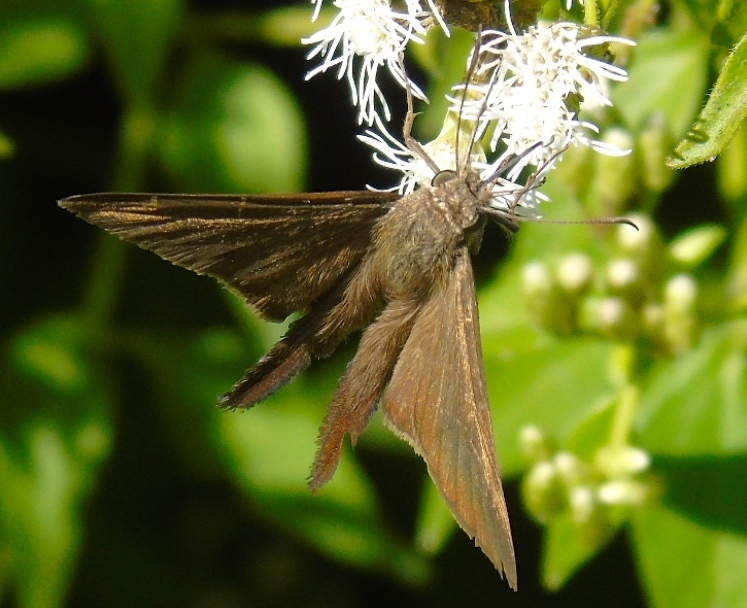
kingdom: Animalia
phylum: Arthropoda
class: Insecta
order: Lepidoptera
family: Hesperiidae
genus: Urbanus
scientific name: Urbanus procne
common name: Brown longtail
